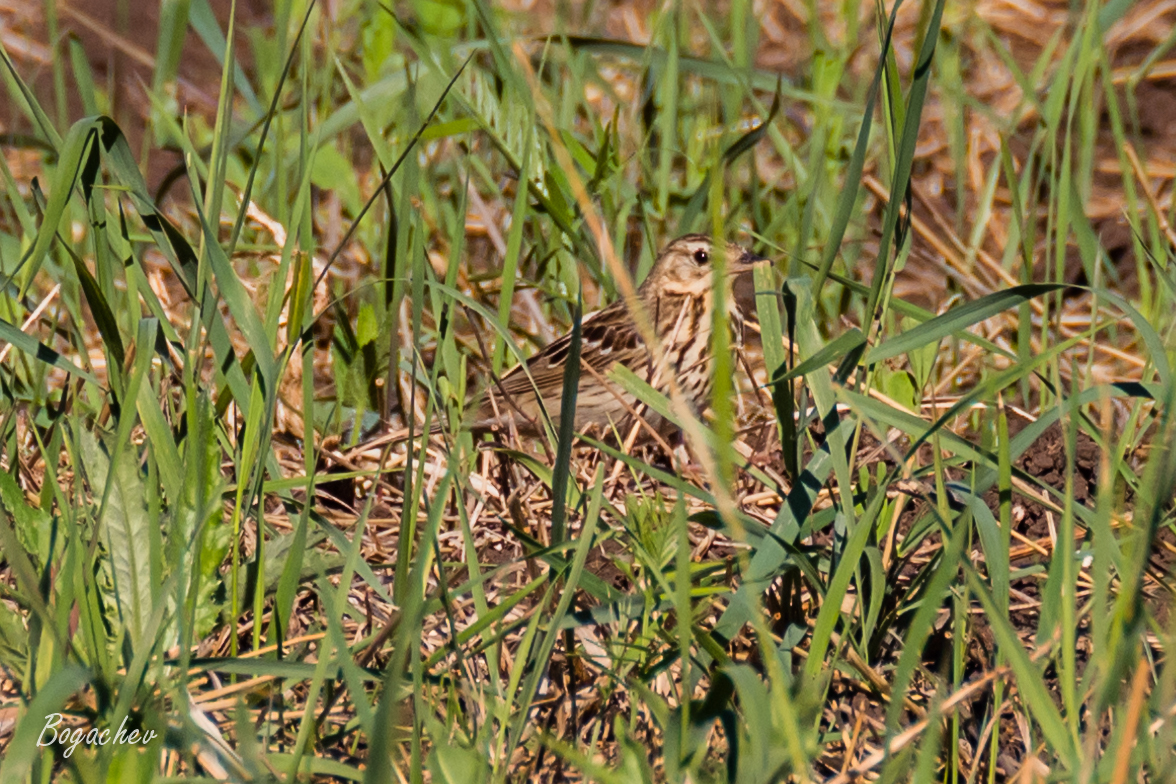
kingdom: Animalia
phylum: Chordata
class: Aves
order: Passeriformes
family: Motacillidae
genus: Anthus
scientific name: Anthus trivialis
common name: Tree pipit
